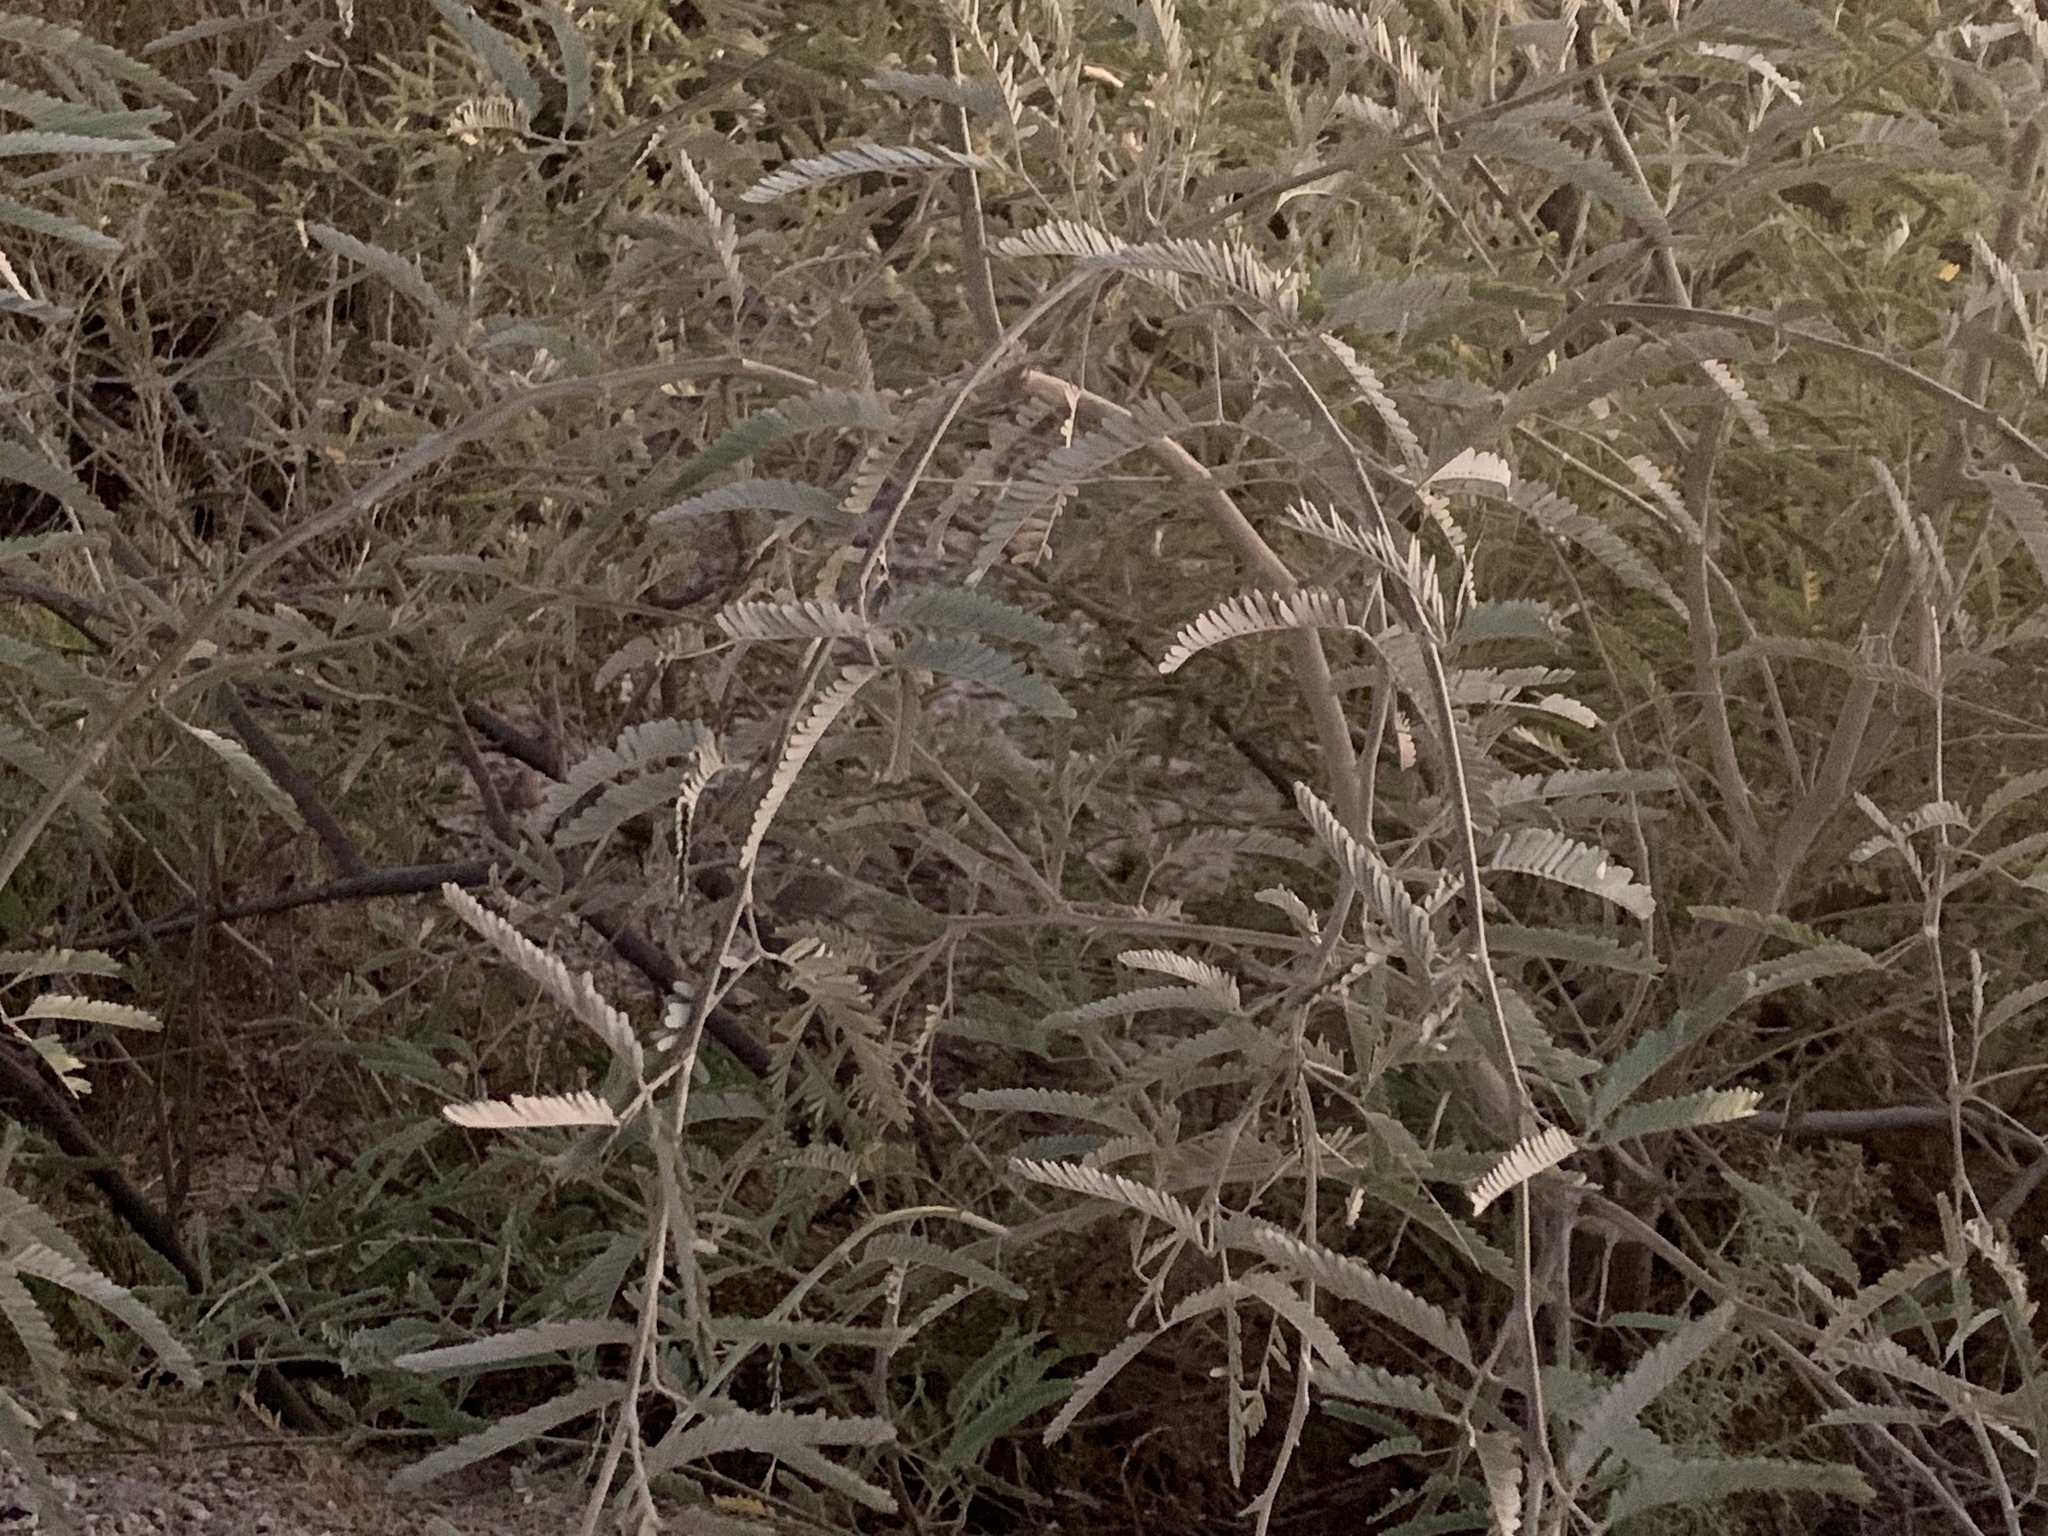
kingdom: Plantae
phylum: Tracheophyta
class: Magnoliopsida
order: Fabales
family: Fabaceae
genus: Prosopis
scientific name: Prosopis velutina
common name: Velvet mesquite
